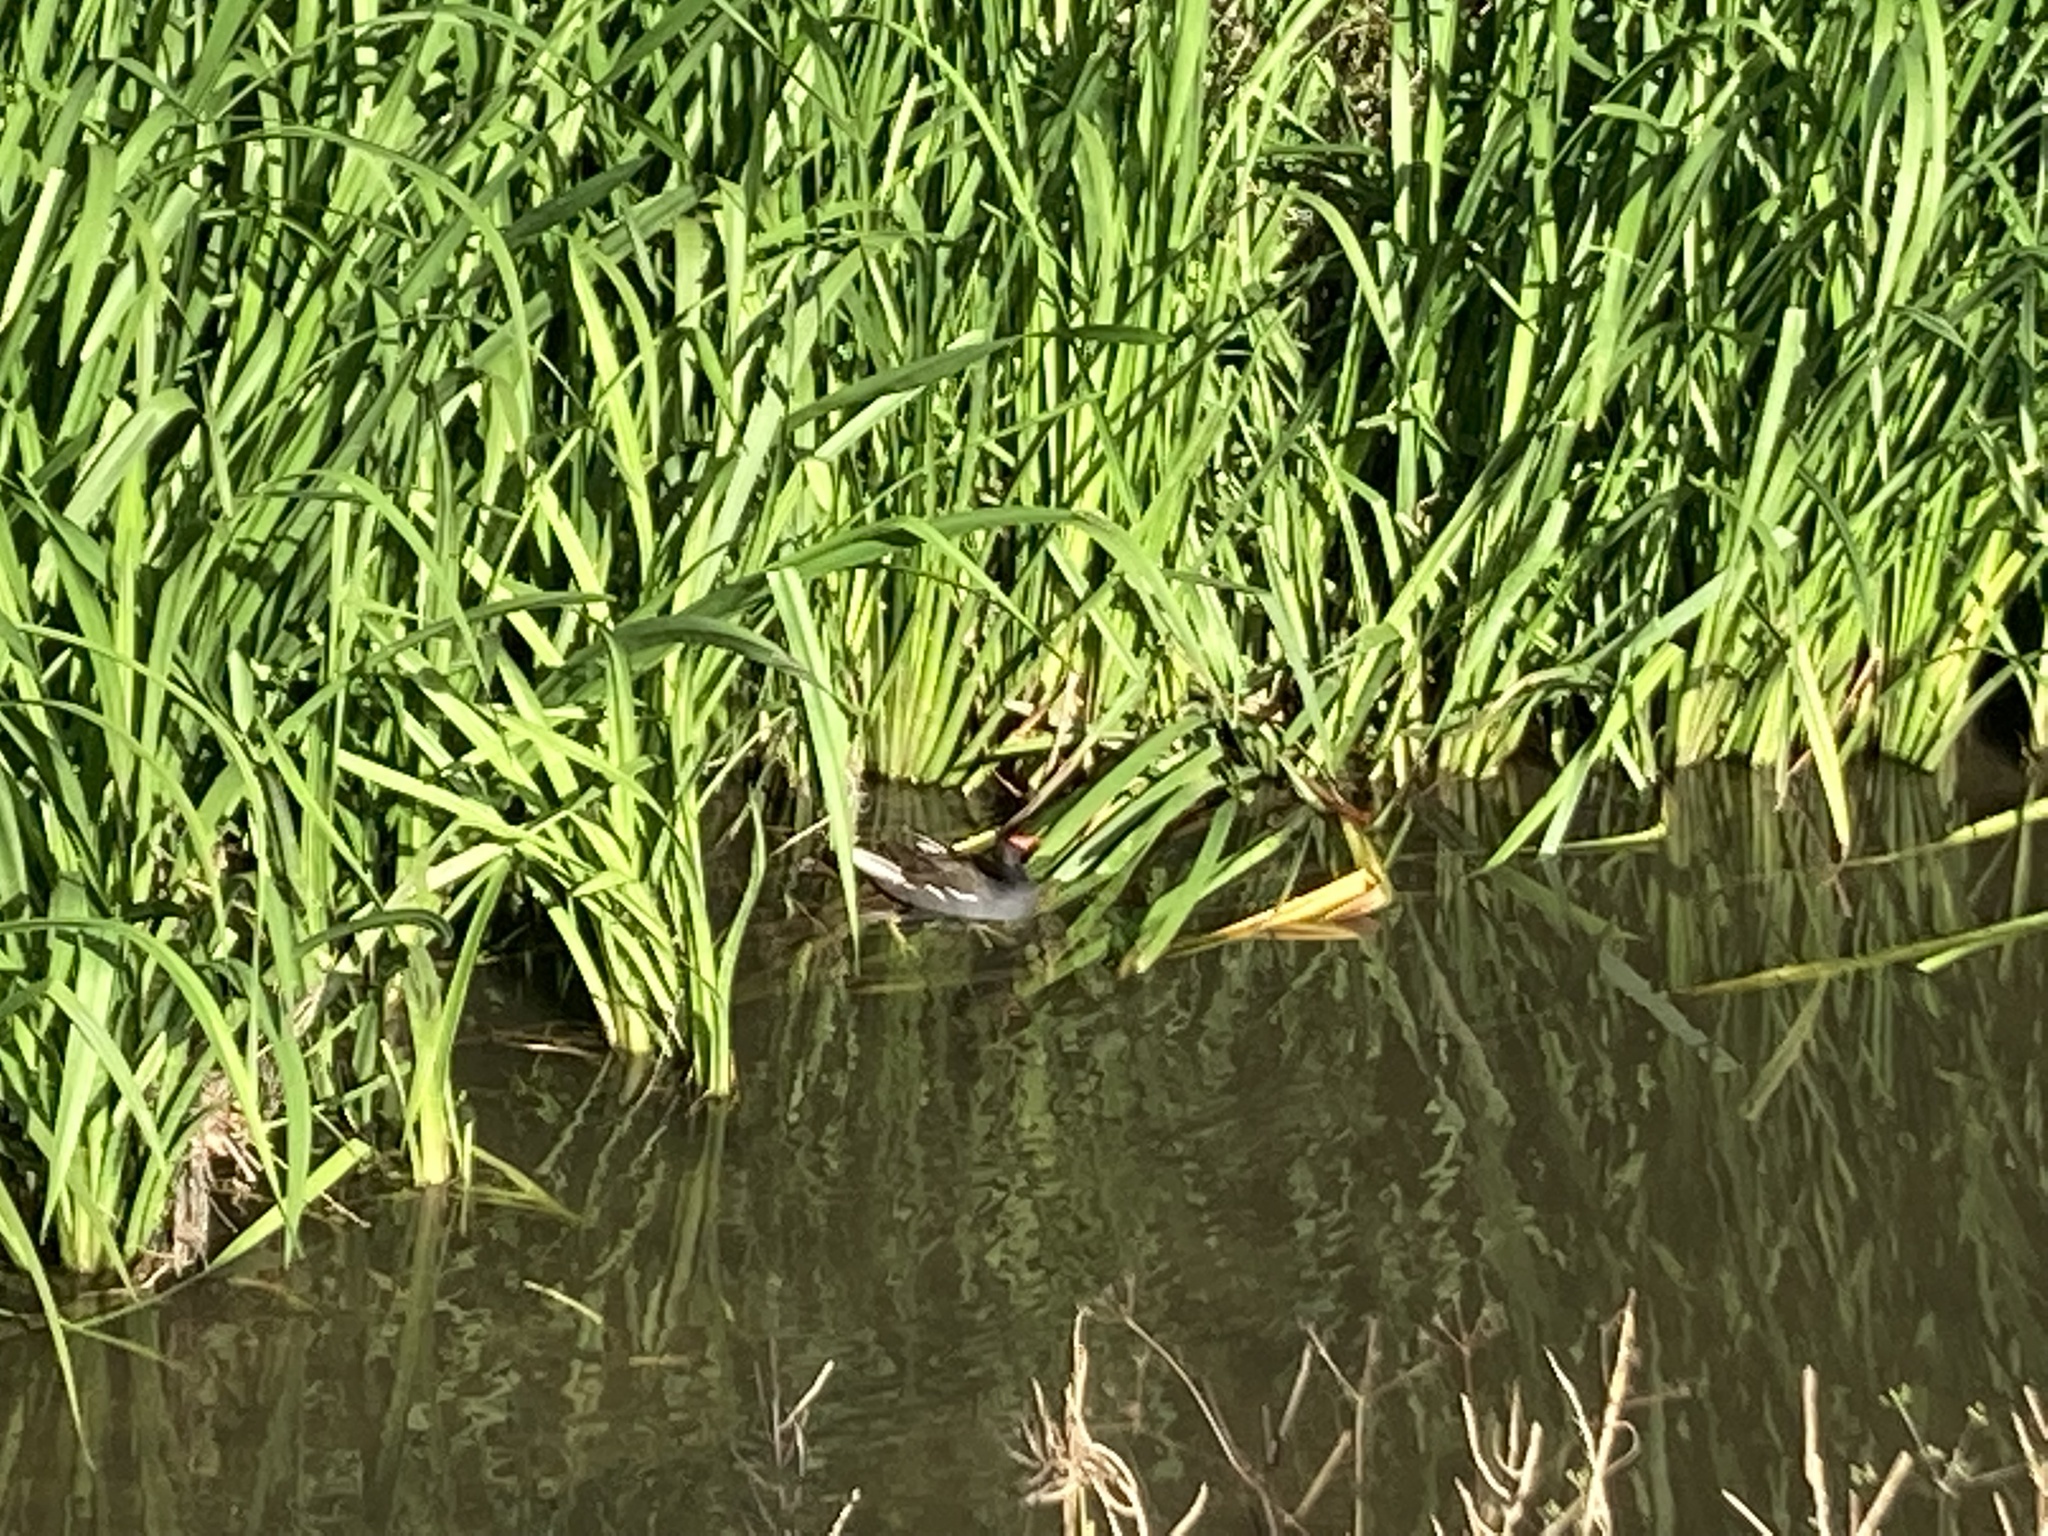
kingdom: Animalia
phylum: Chordata
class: Aves
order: Gruiformes
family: Rallidae
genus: Gallinula
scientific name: Gallinula chloropus
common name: Common moorhen
